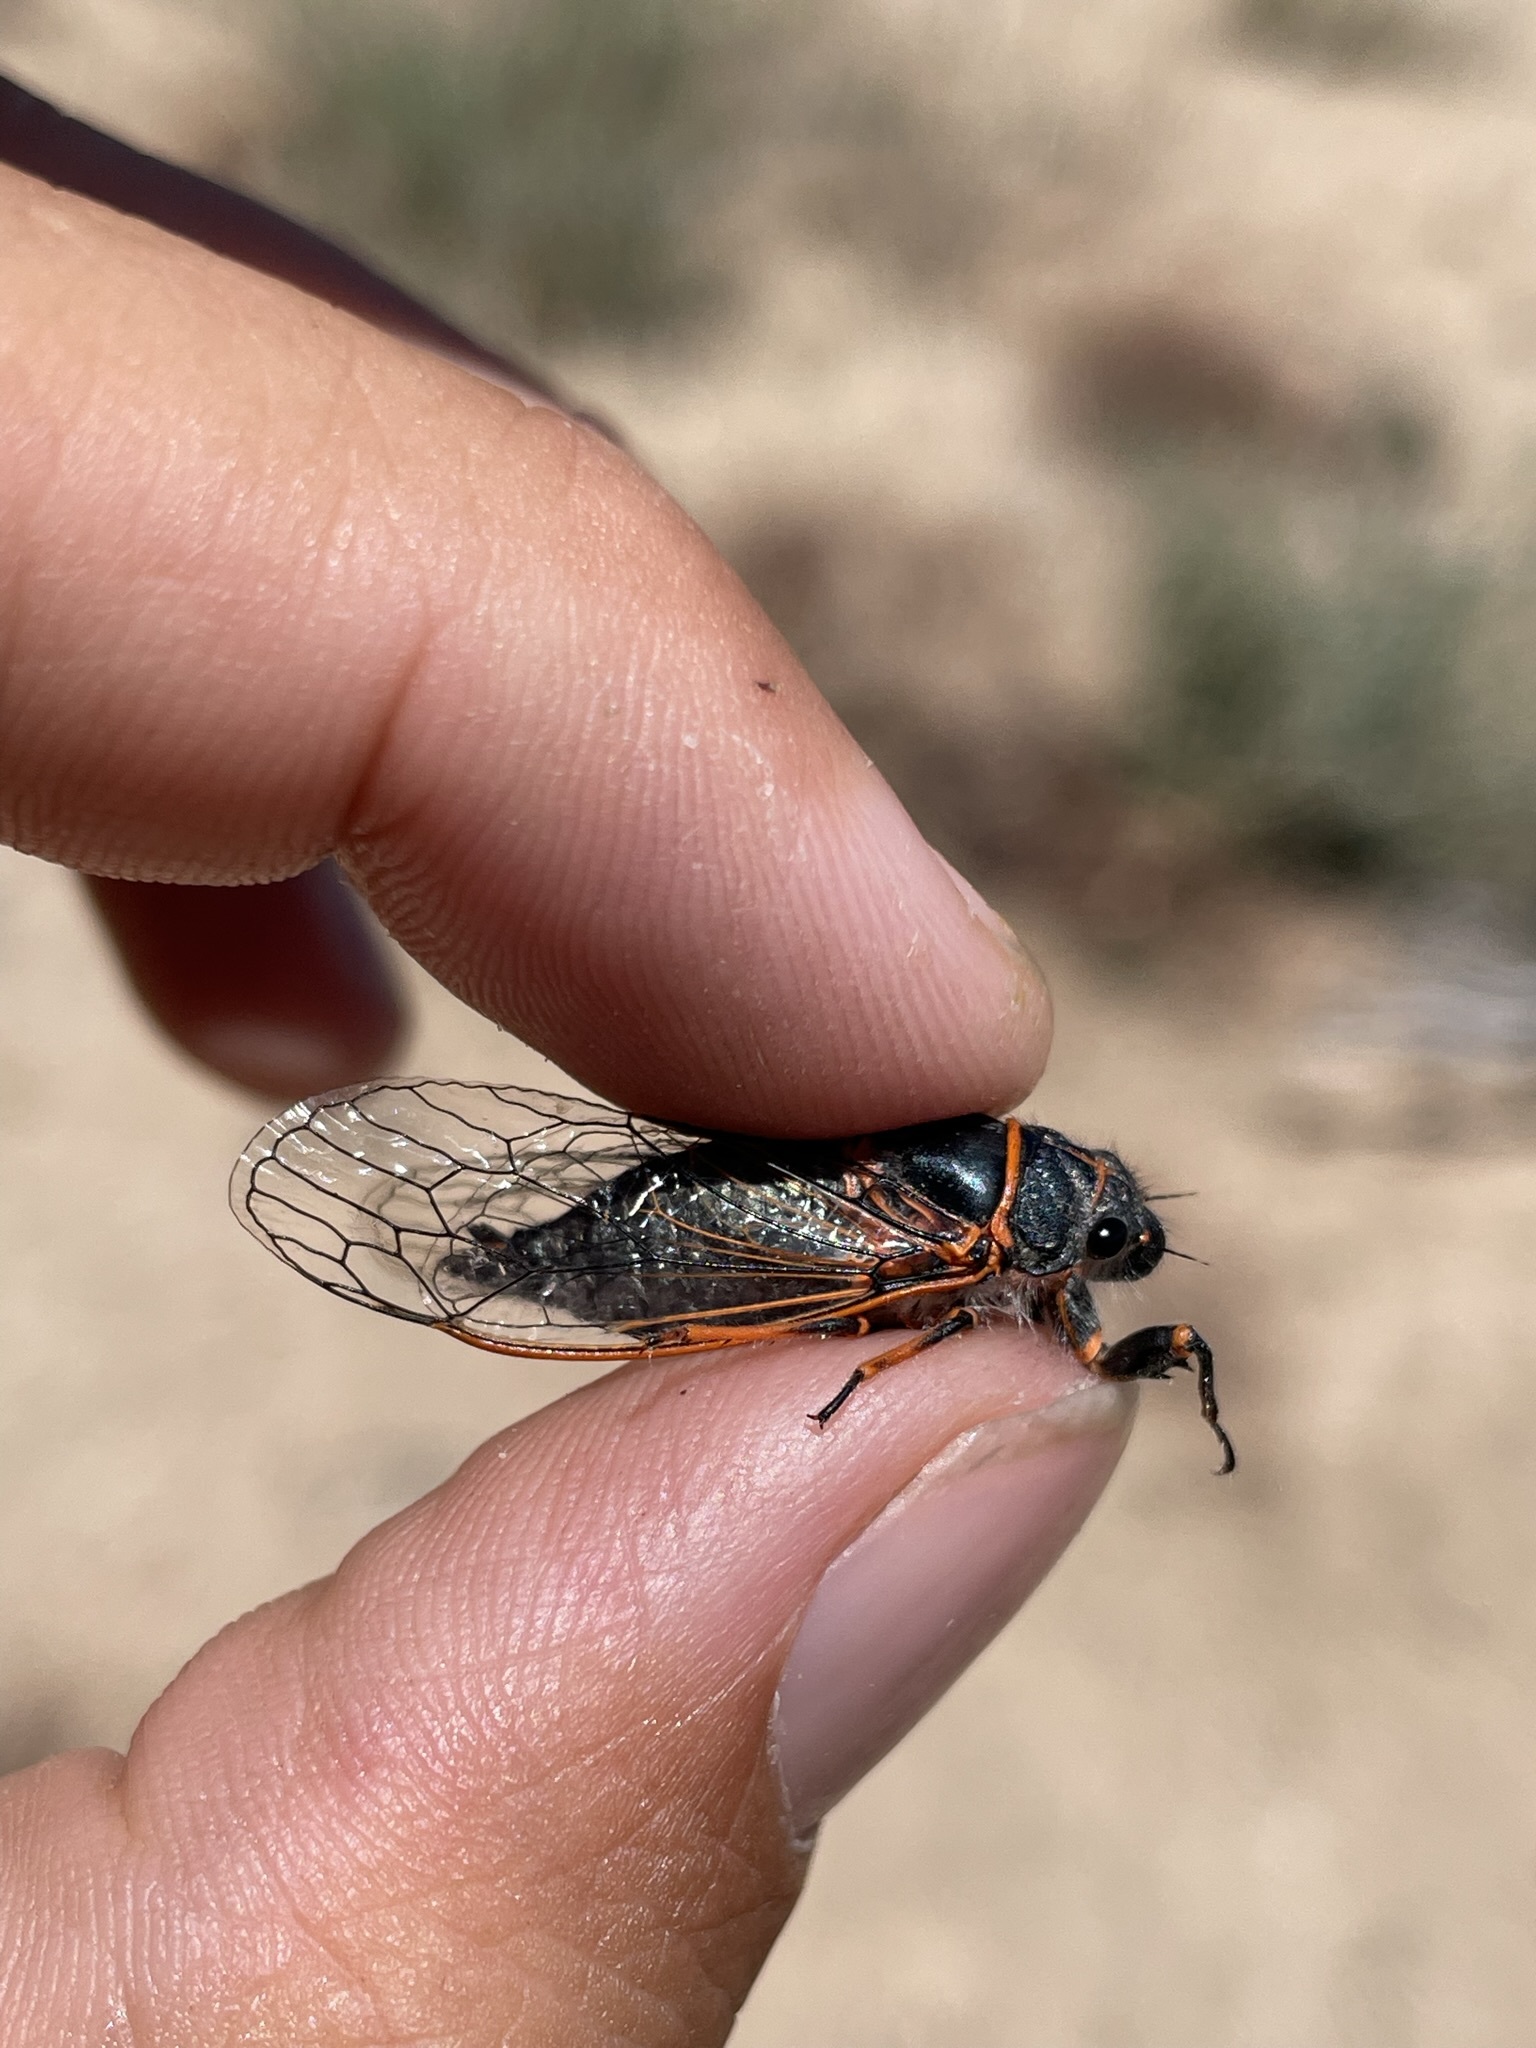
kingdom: Animalia
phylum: Arthropoda
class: Insecta
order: Hemiptera
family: Cicadidae
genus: Platypedia
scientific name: Platypedia sylvesteri
